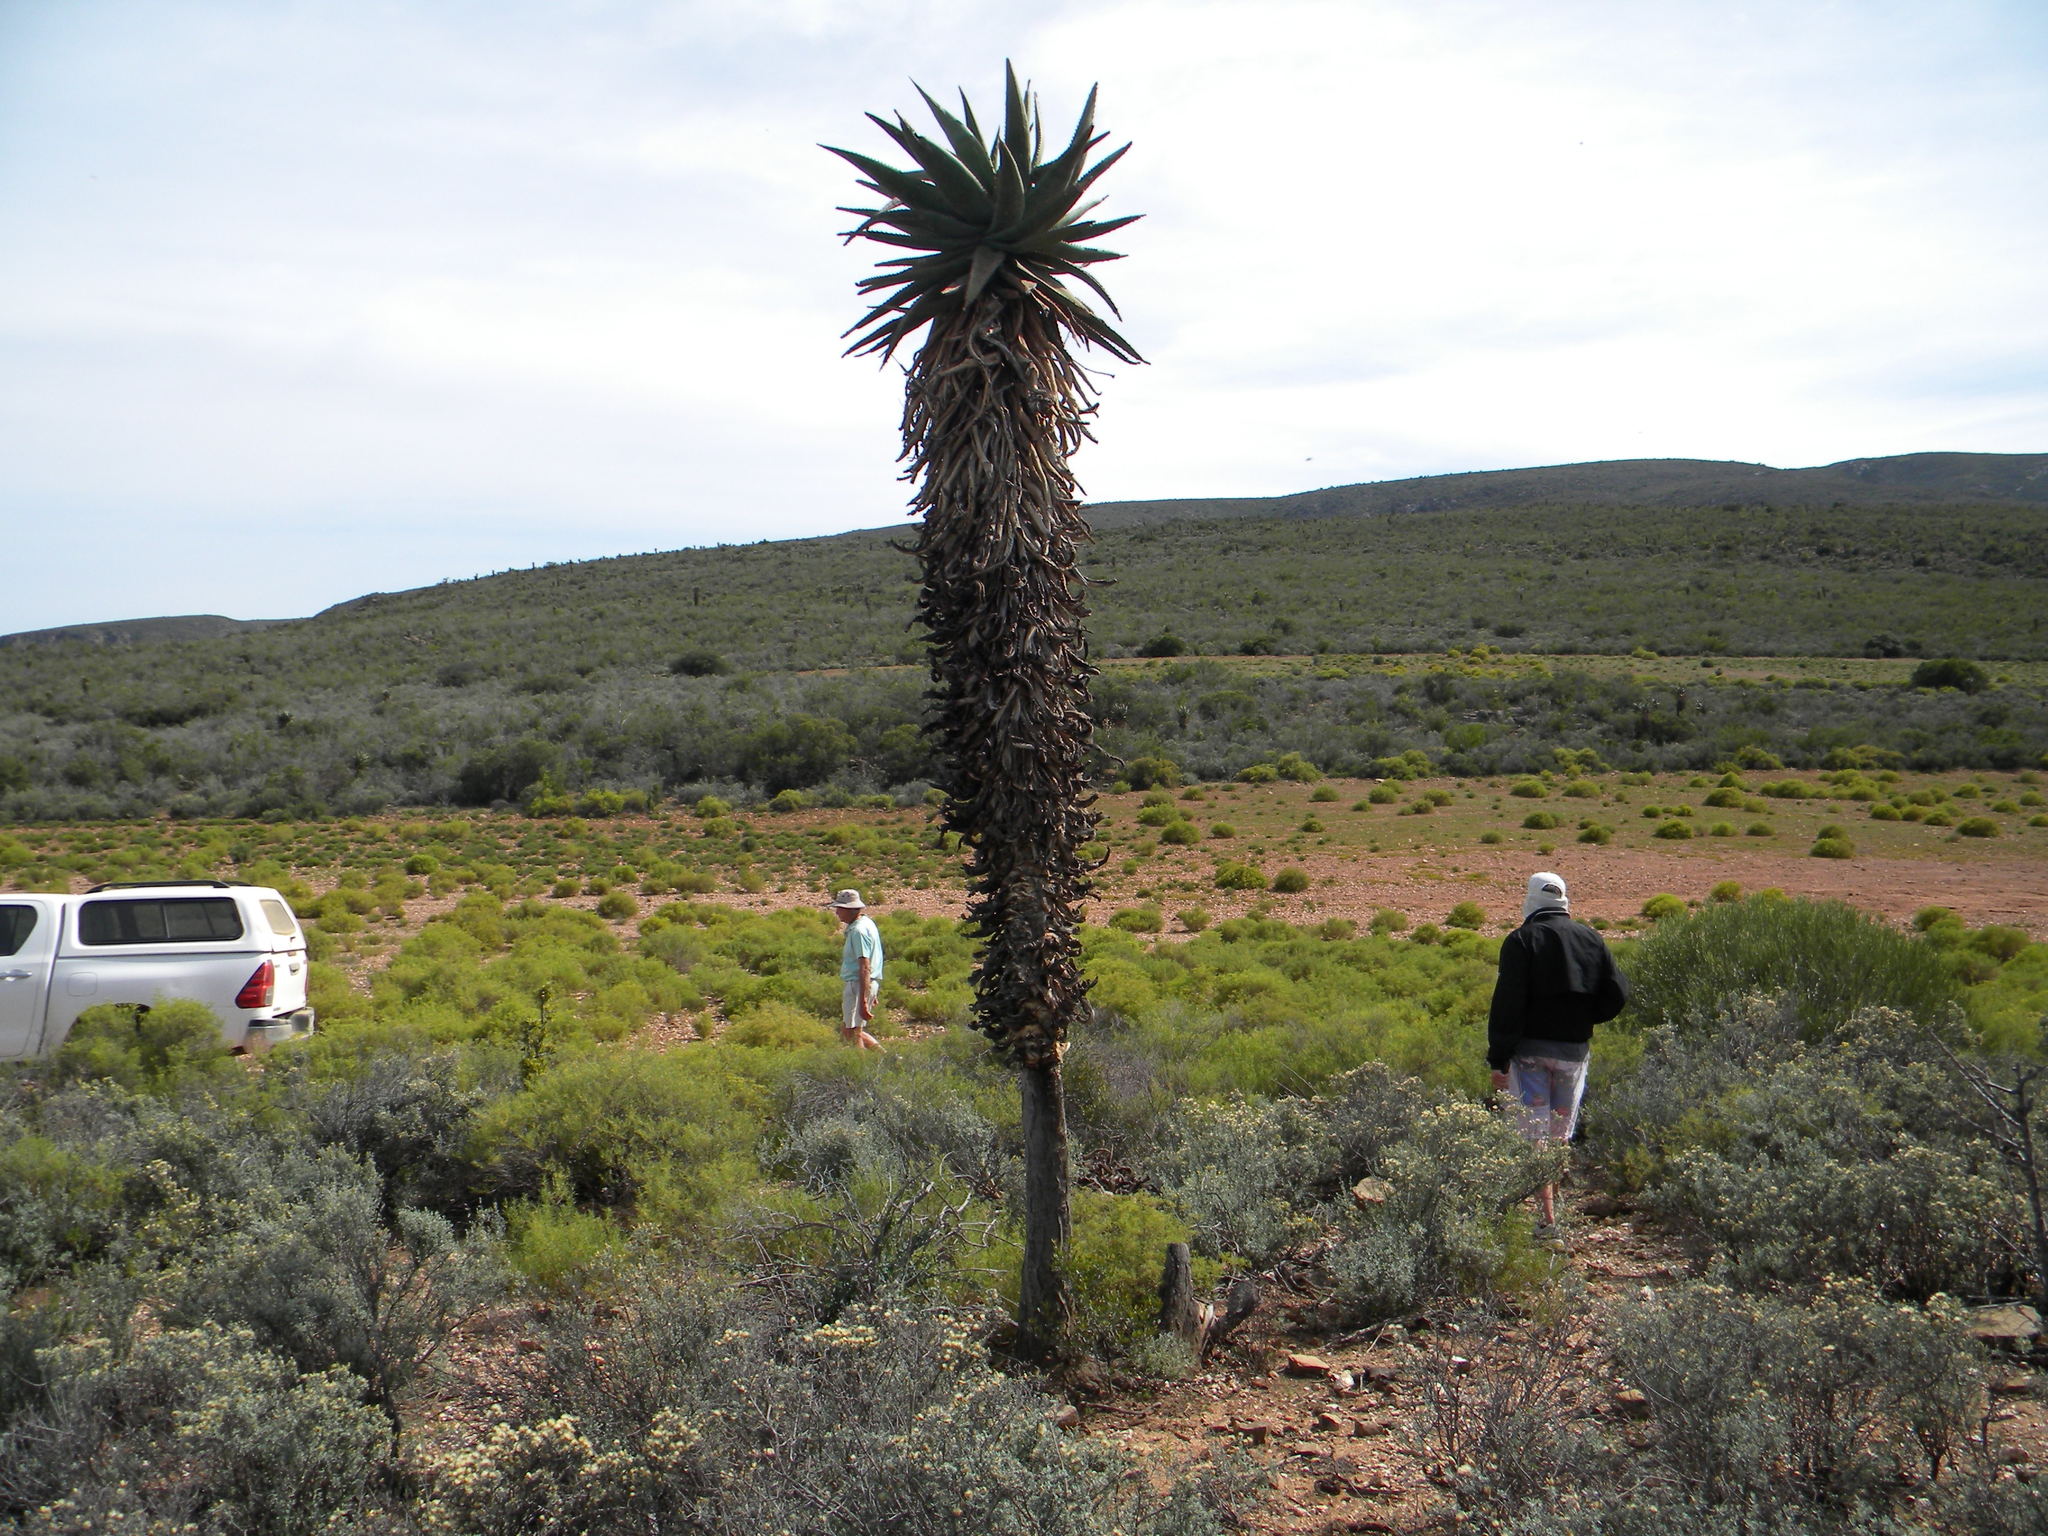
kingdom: Plantae
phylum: Tracheophyta
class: Liliopsida
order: Asparagales
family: Asphodelaceae
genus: Aloe
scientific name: Aloe ferox
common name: Bitter aloe
